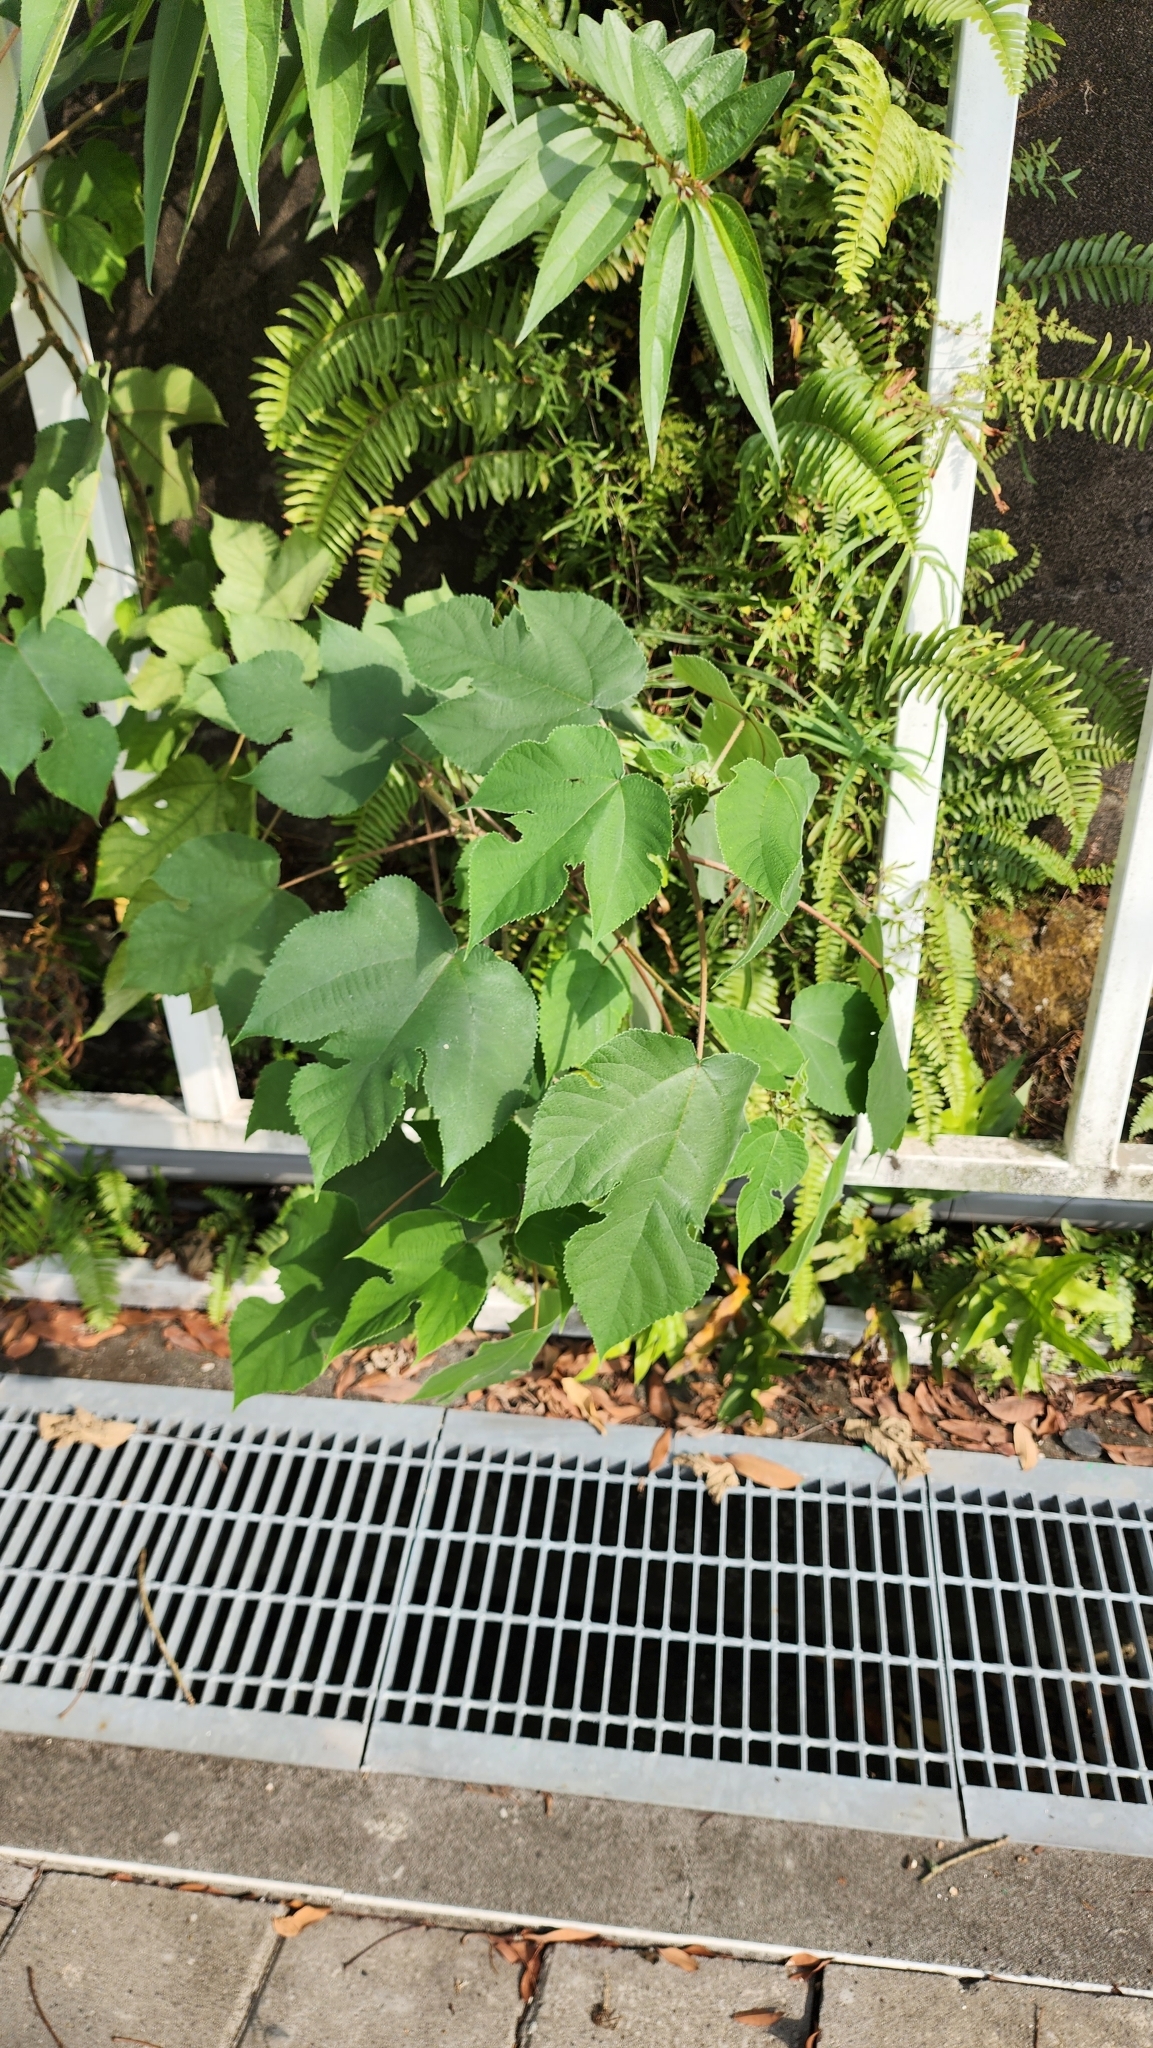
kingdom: Plantae
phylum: Tracheophyta
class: Magnoliopsida
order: Rosales
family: Moraceae
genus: Broussonetia
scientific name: Broussonetia papyrifera
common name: Paper mulberry
